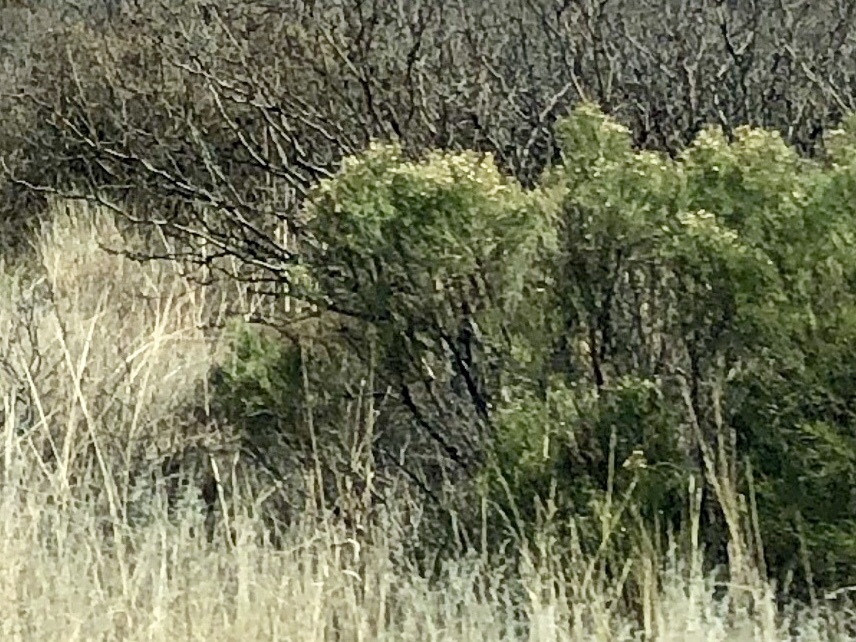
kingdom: Plantae
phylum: Tracheophyta
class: Magnoliopsida
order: Asterales
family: Asteraceae
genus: Baccharis
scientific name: Baccharis sarothroides
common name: Desert-broom
